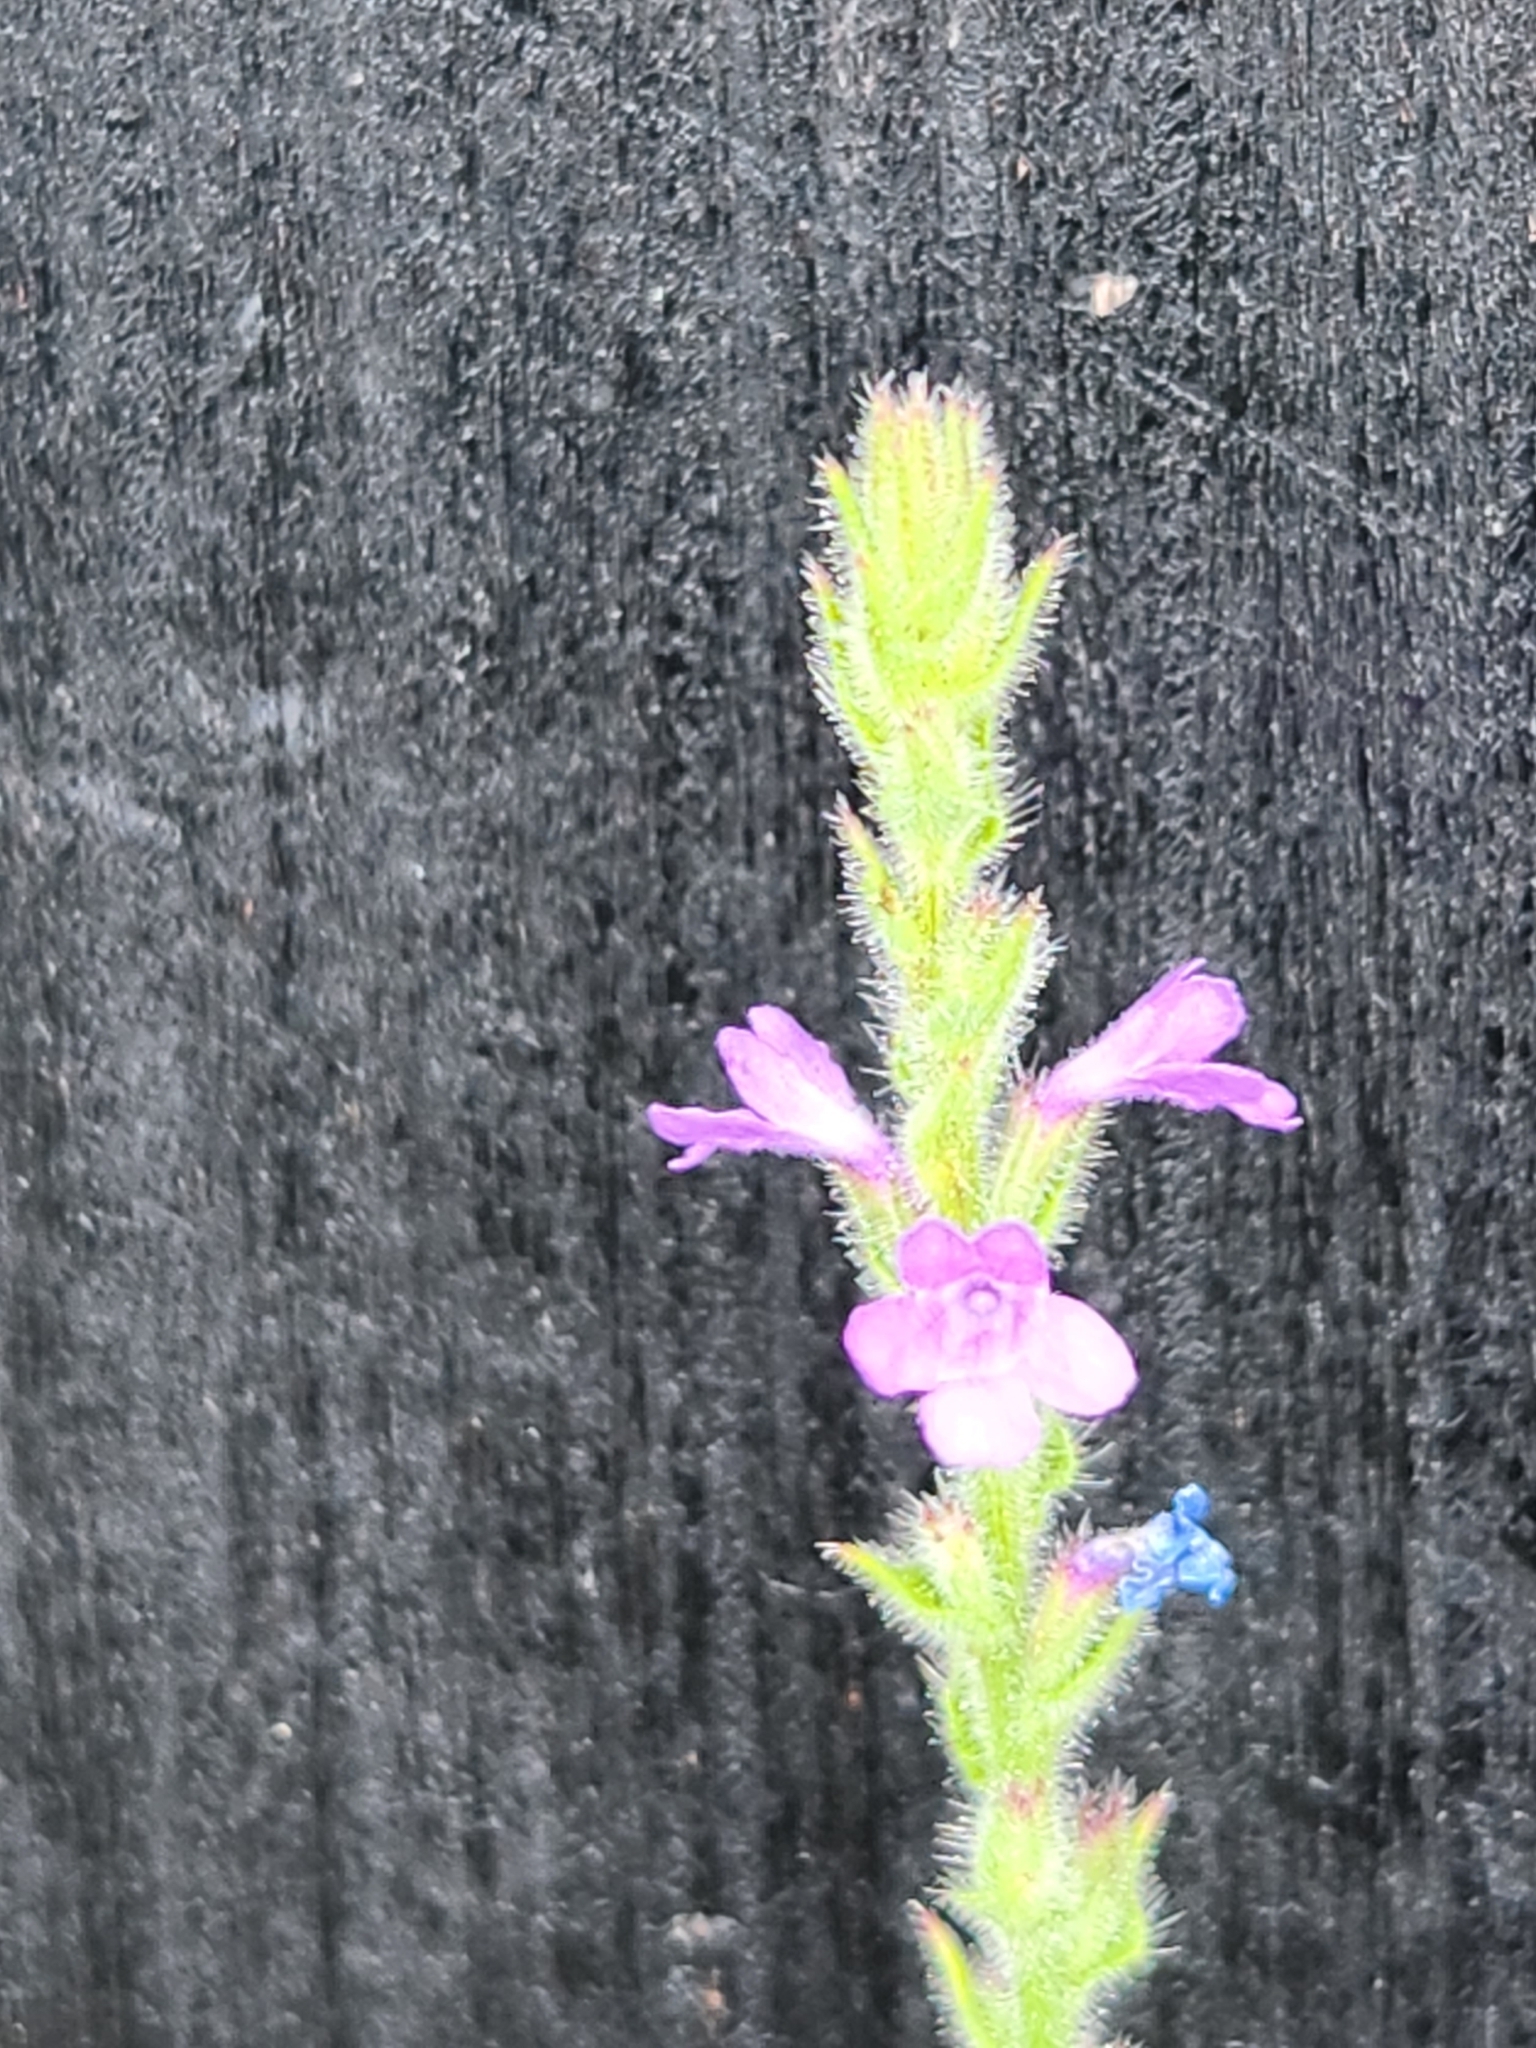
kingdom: Plantae
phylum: Tracheophyta
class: Magnoliopsida
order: Lamiales
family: Verbenaceae
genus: Verbena
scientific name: Verbena canescens
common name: Gray vervain
